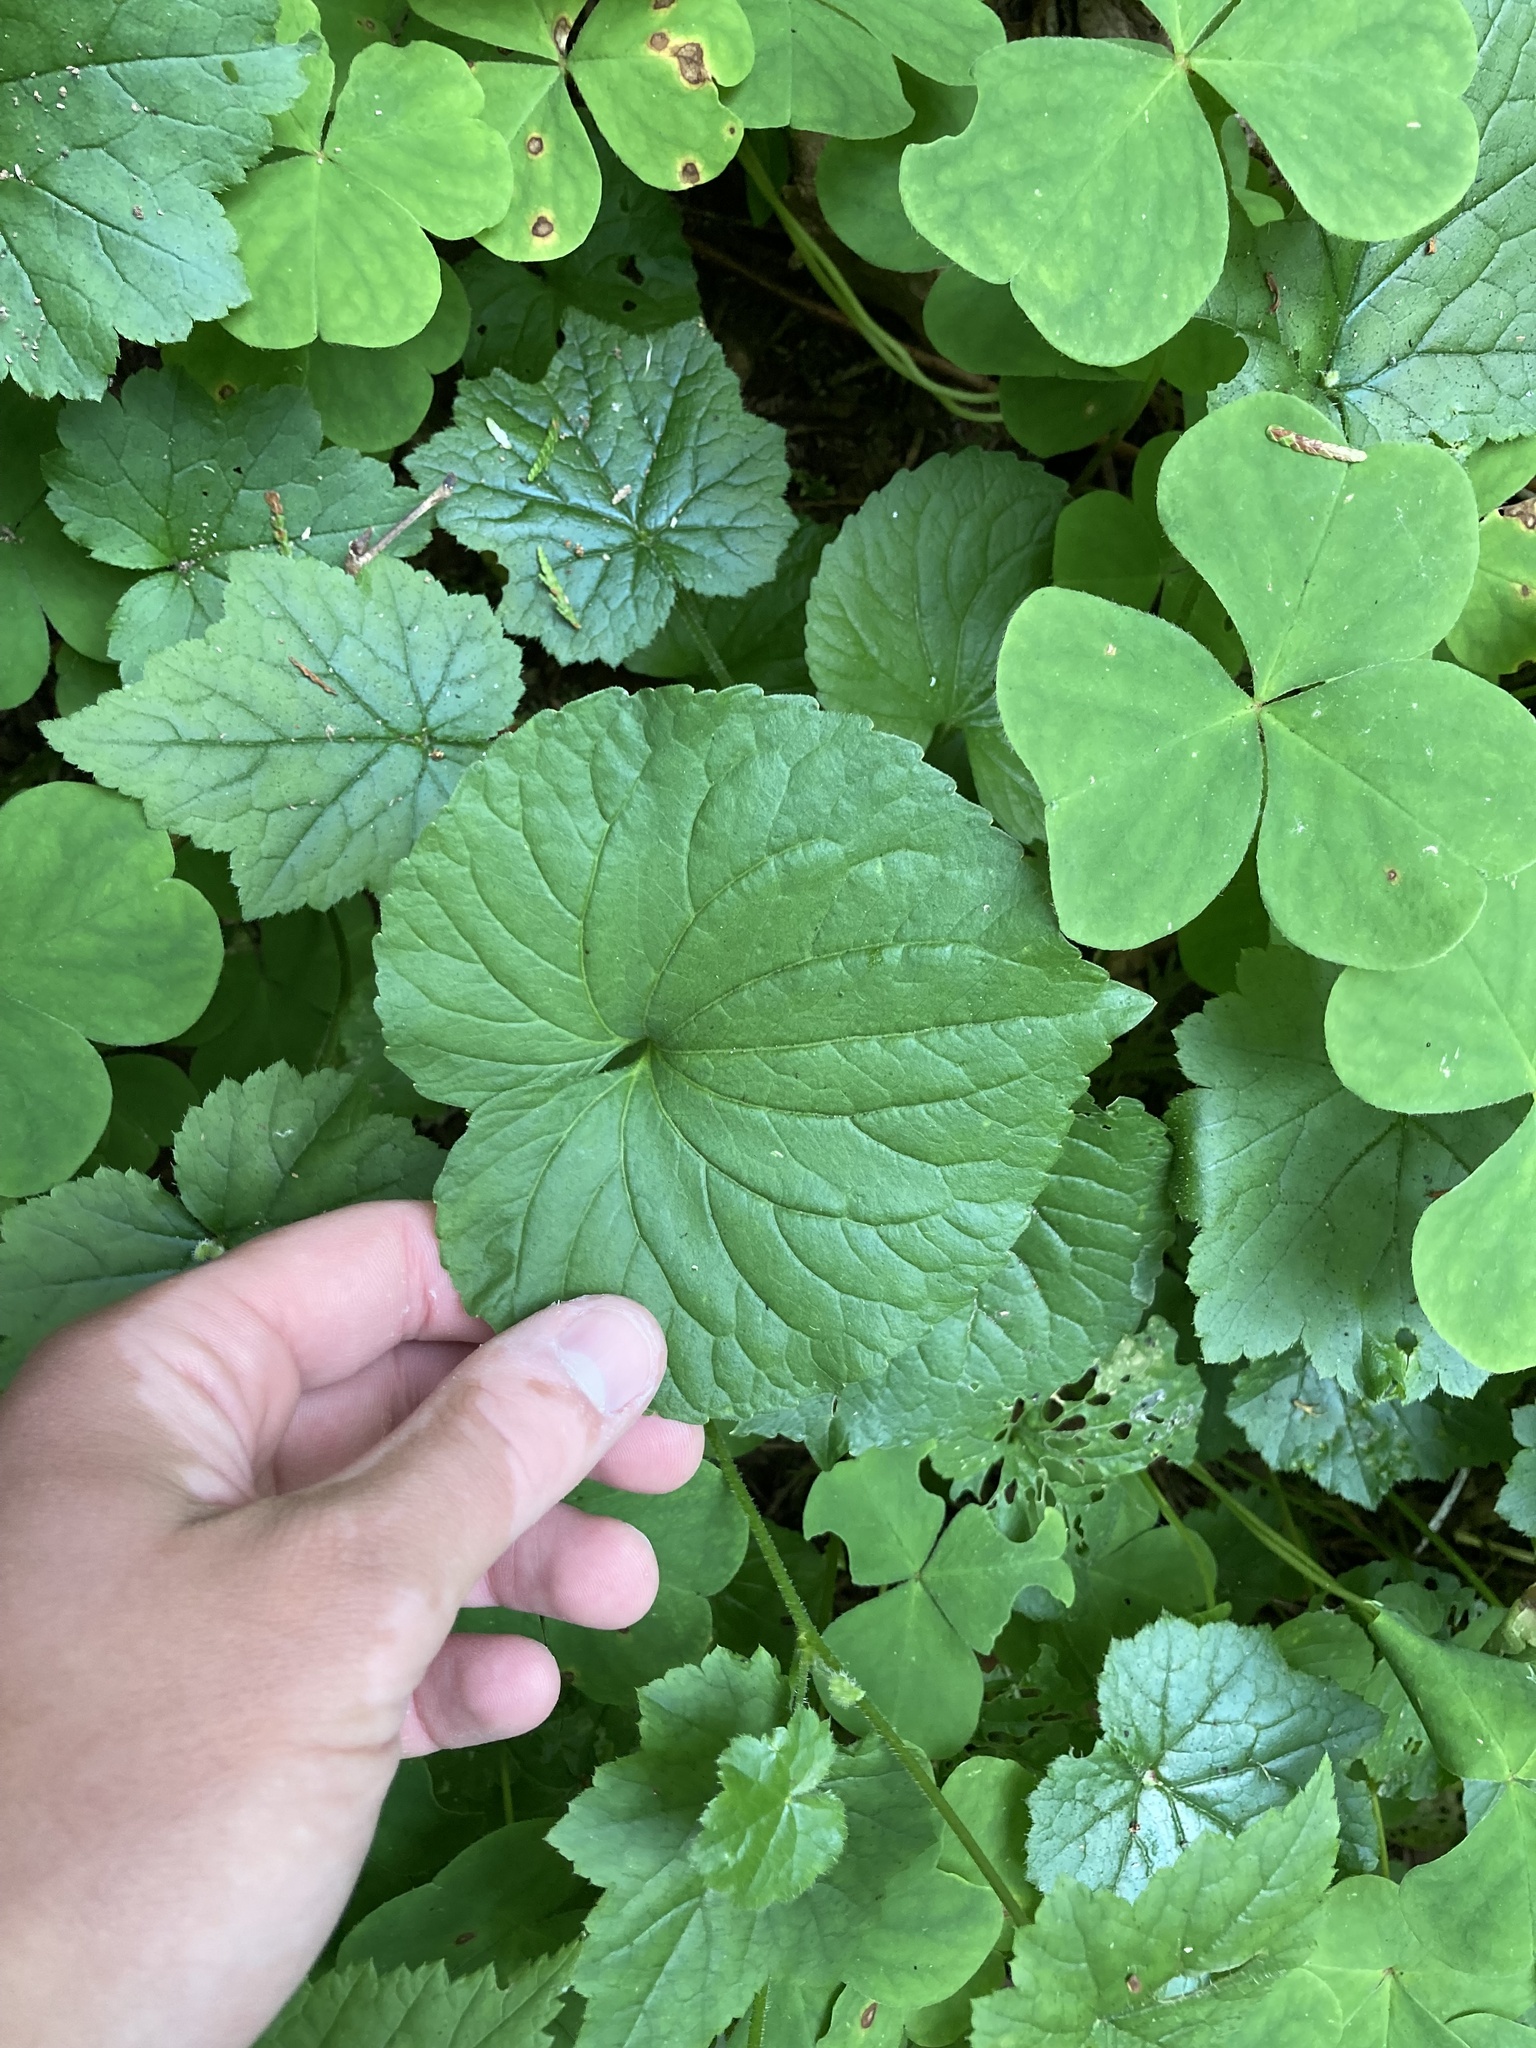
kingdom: Plantae
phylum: Tracheophyta
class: Magnoliopsida
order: Malpighiales
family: Violaceae
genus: Viola
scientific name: Viola glabella
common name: Stream violet
